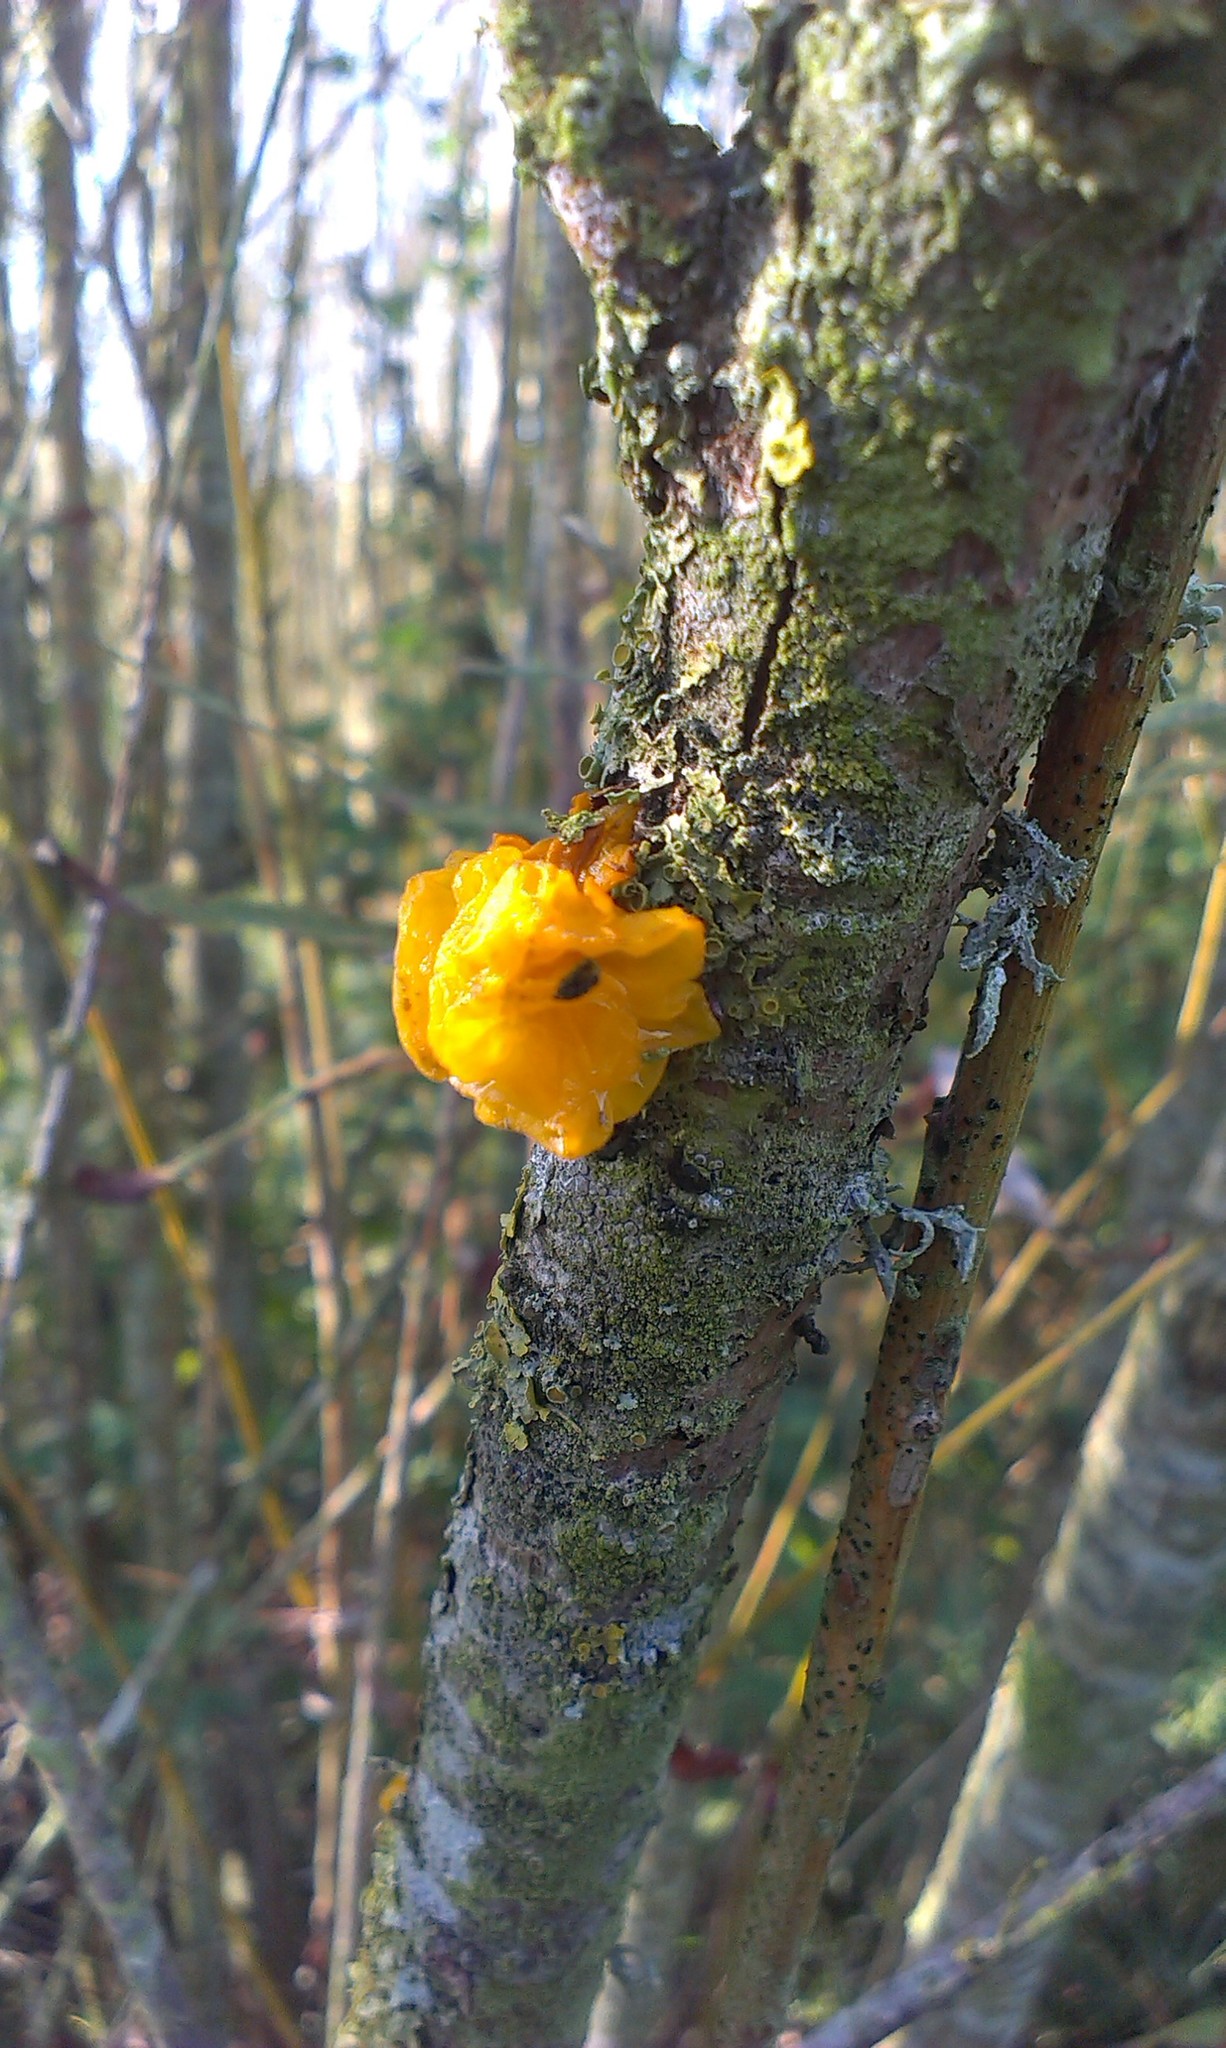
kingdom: Fungi
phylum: Basidiomycota
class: Tremellomycetes
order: Tremellales
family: Tremellaceae
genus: Tremella
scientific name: Tremella mesenterica
